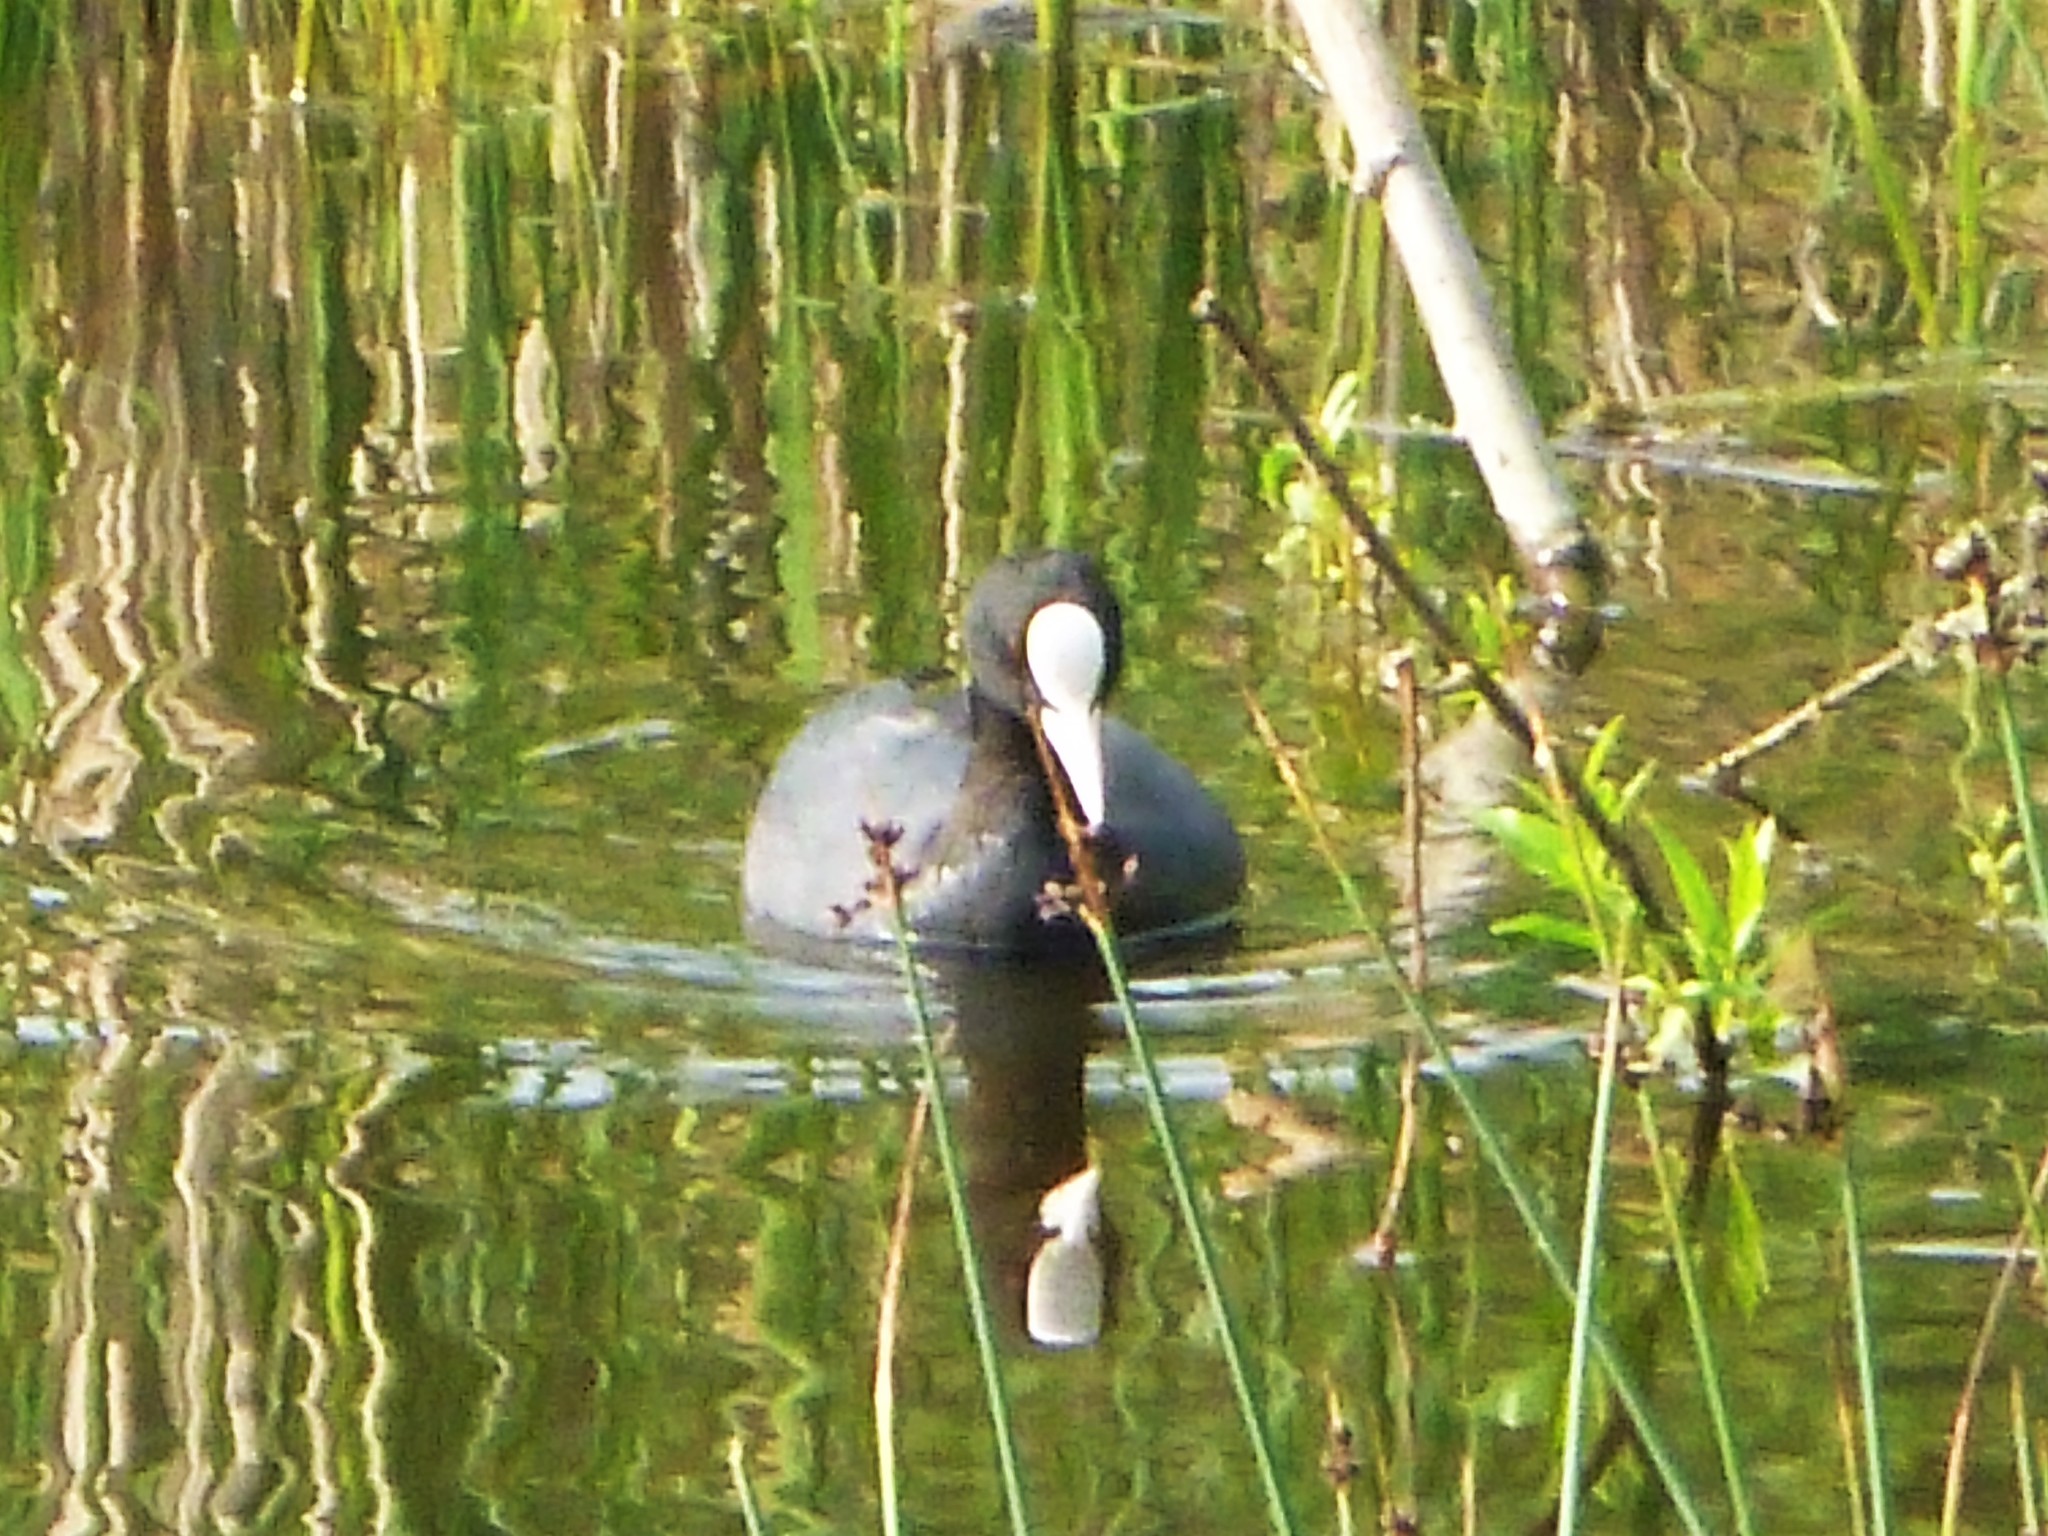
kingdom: Animalia
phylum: Chordata
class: Aves
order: Gruiformes
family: Rallidae
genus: Fulica
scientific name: Fulica atra
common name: Eurasian coot
